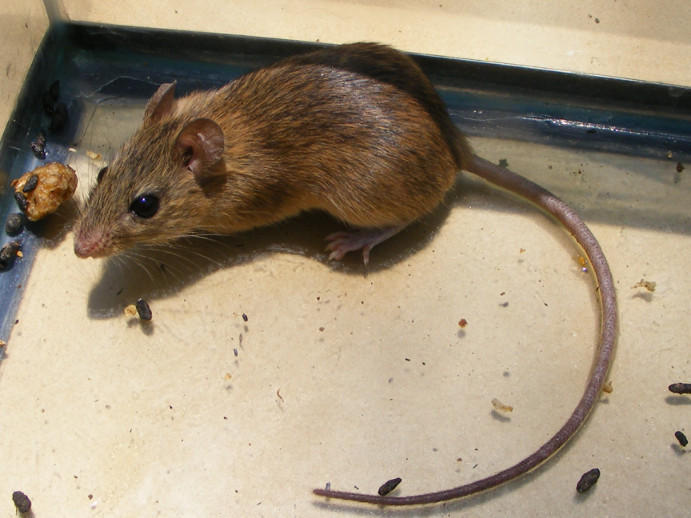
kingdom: Animalia
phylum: Chordata
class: Mammalia
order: Rodentia
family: Muridae
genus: Micaelamys
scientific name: Micaelamys namaquensis
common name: Namaqua micaelamys
